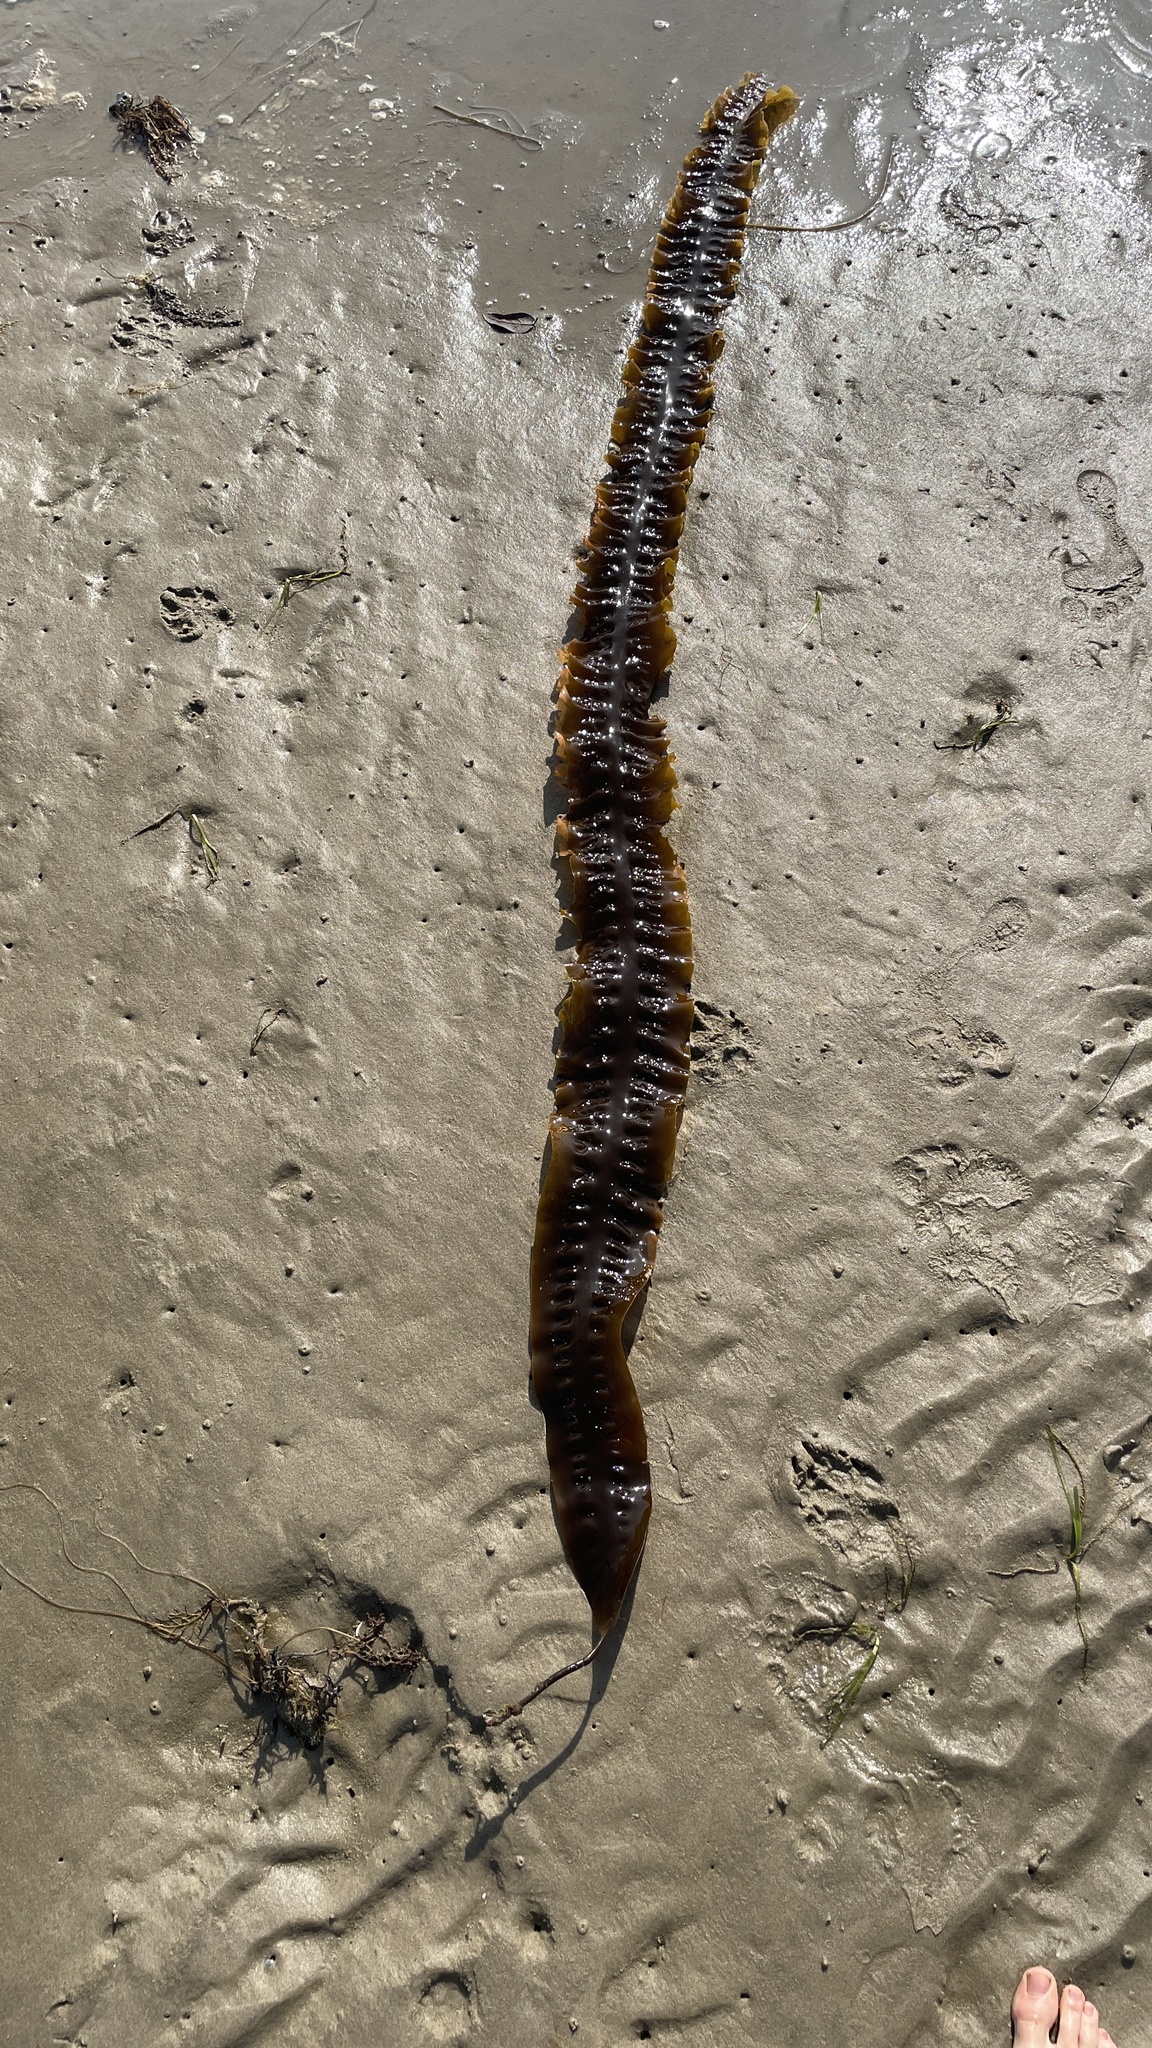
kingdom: Chromista
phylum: Ochrophyta
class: Phaeophyceae
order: Laminariales
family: Laminariaceae
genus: Saccharina
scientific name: Saccharina latissima
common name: Poor man's weather glass
